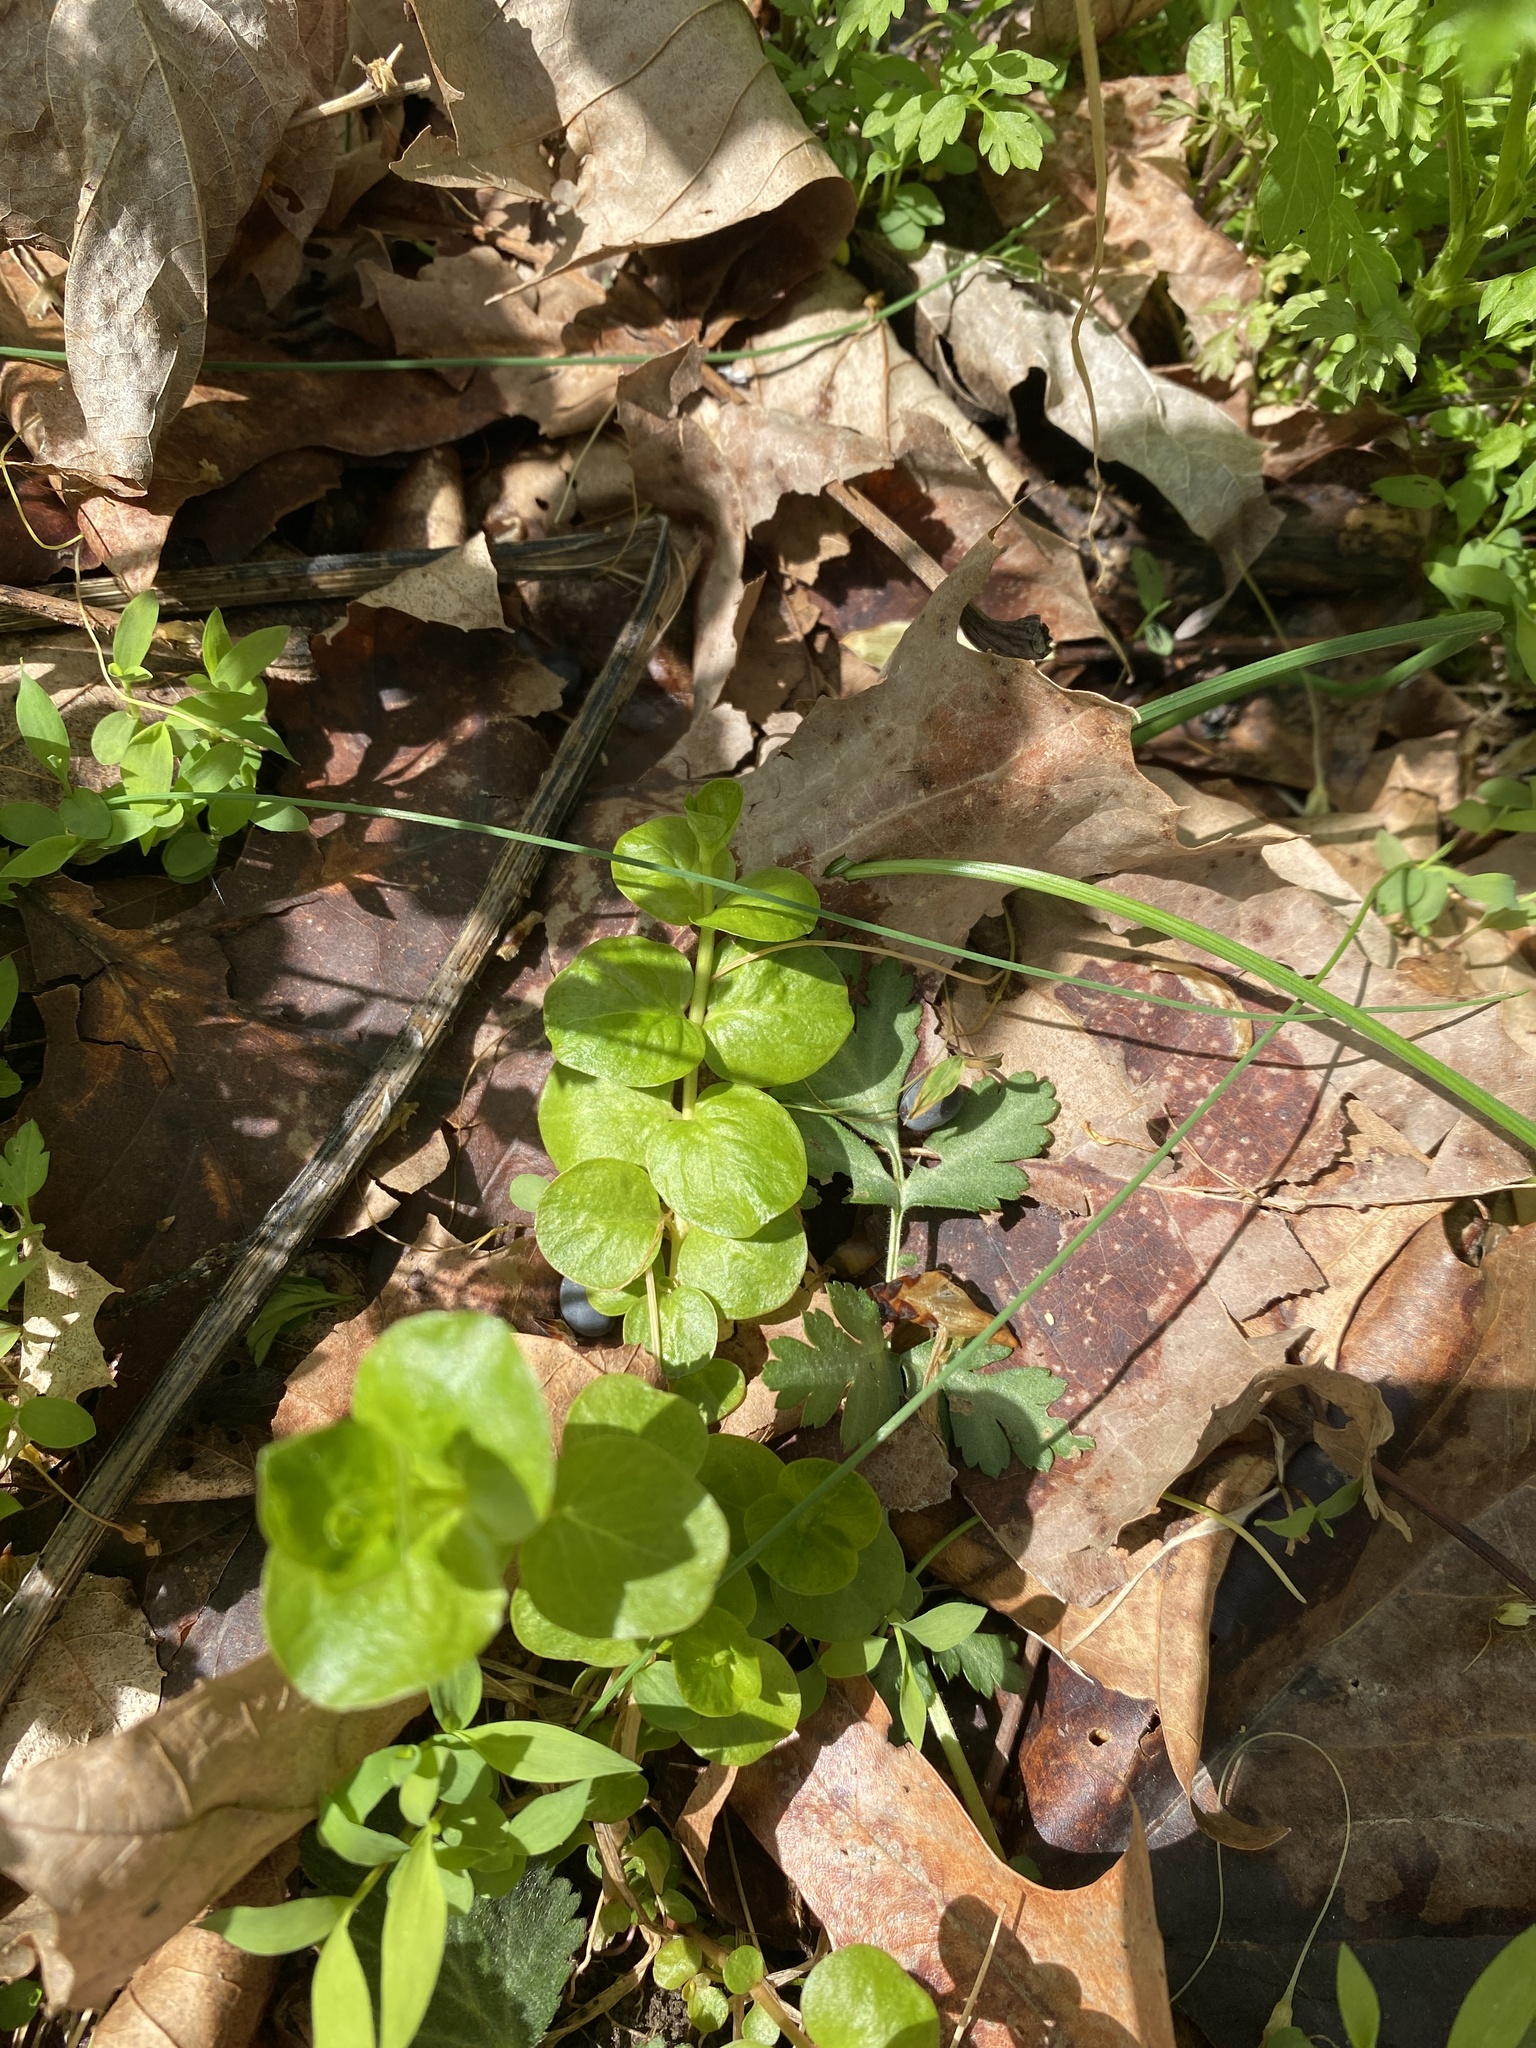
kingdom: Plantae
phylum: Tracheophyta
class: Magnoliopsida
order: Ericales
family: Primulaceae
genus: Lysimachia
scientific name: Lysimachia nummularia
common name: Moneywort
